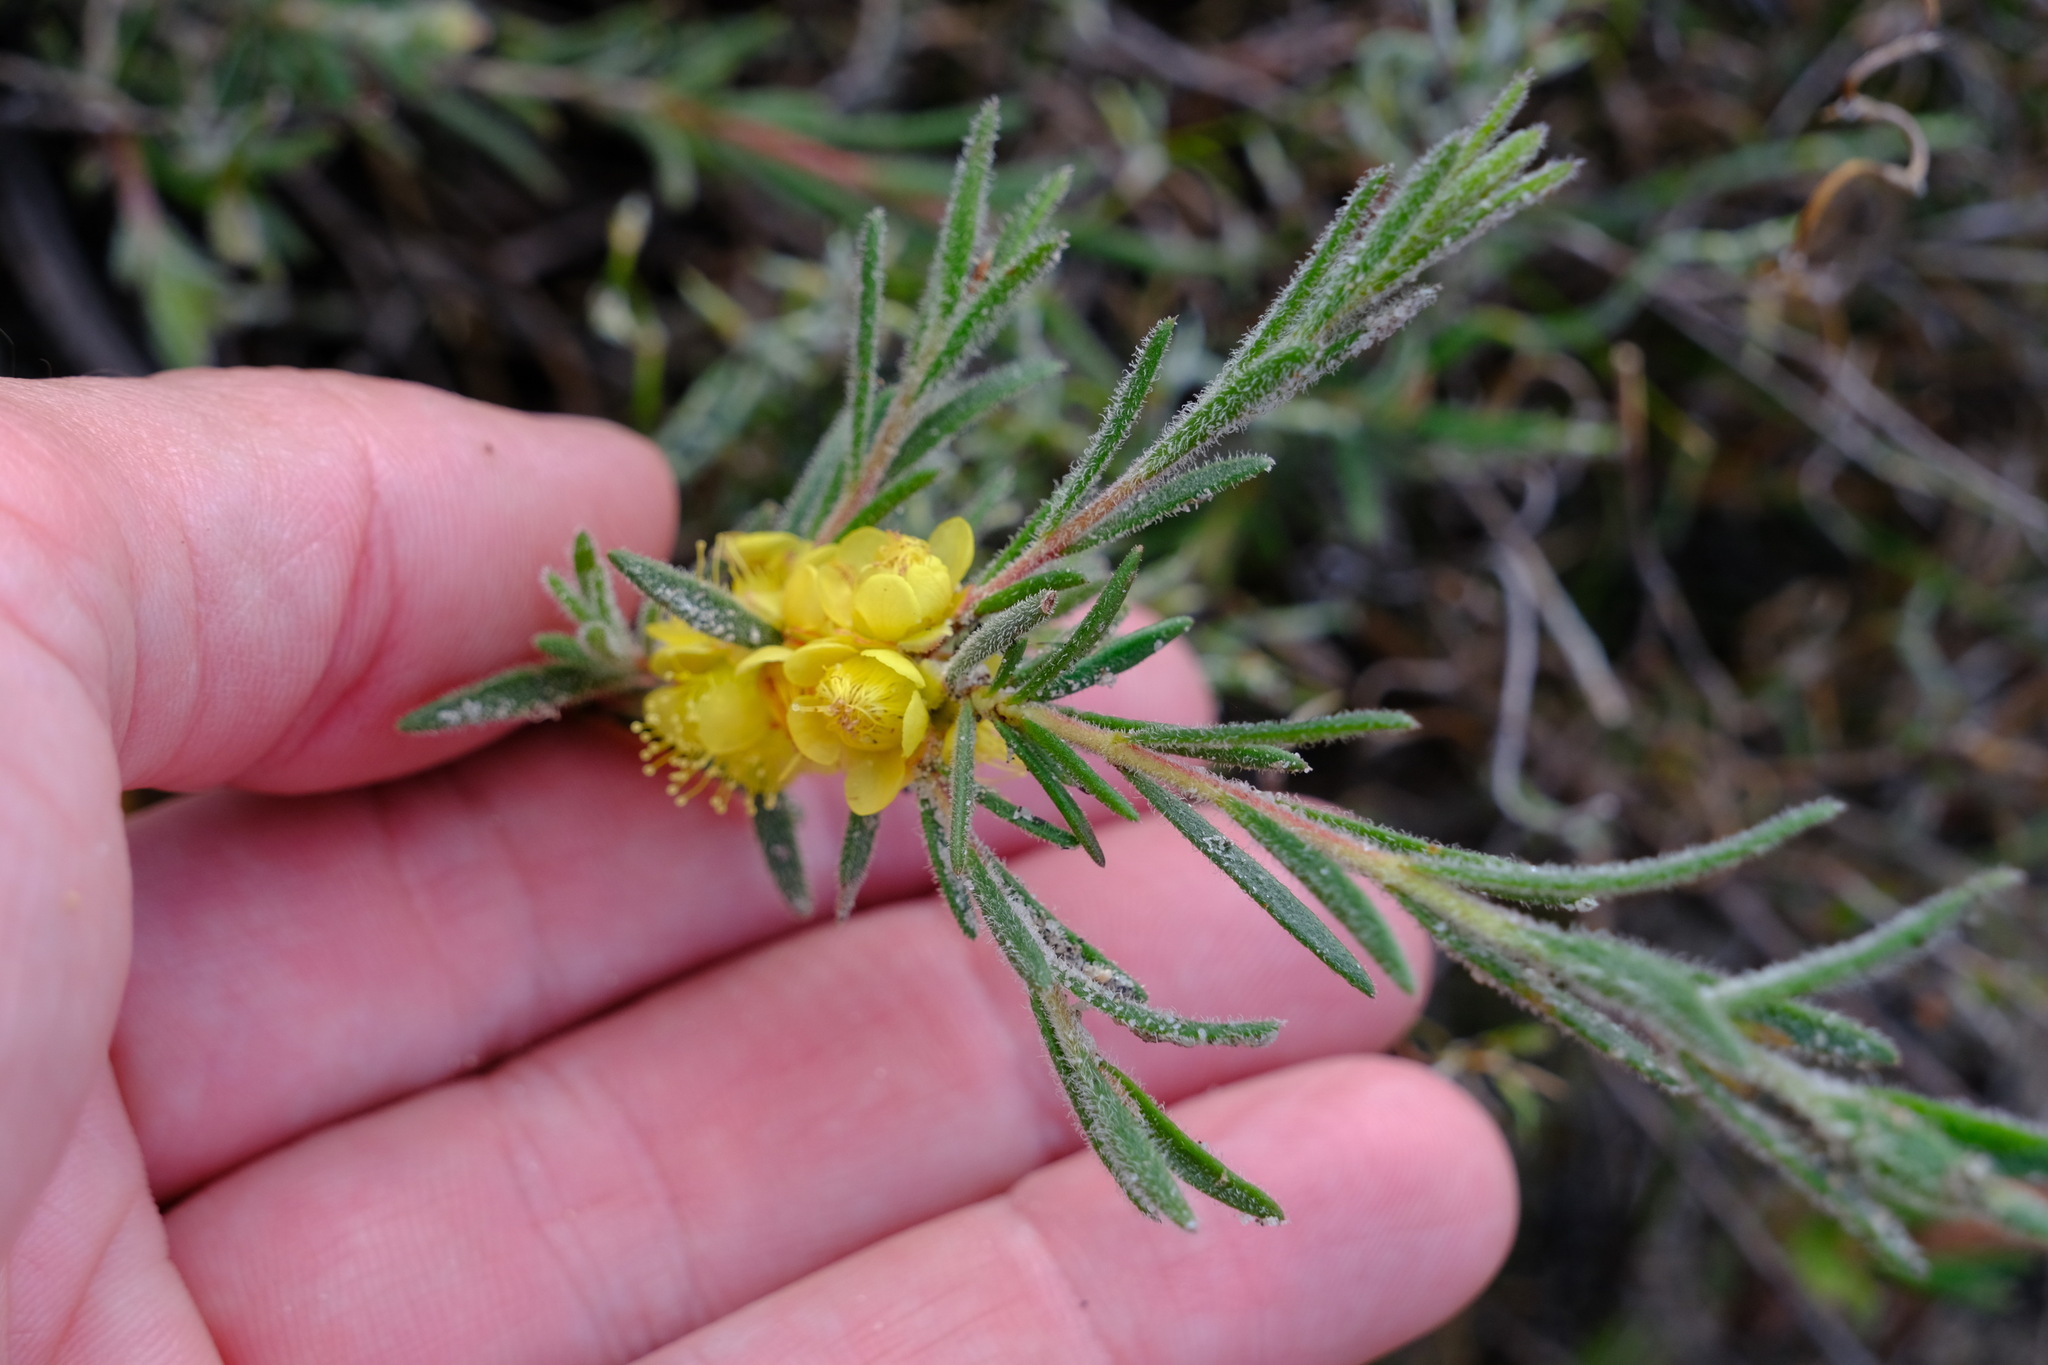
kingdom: Plantae
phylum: Tracheophyta
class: Magnoliopsida
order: Myrtales
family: Myrtaceae
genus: Hypocalymma
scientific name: Hypocalymma hirsutum
